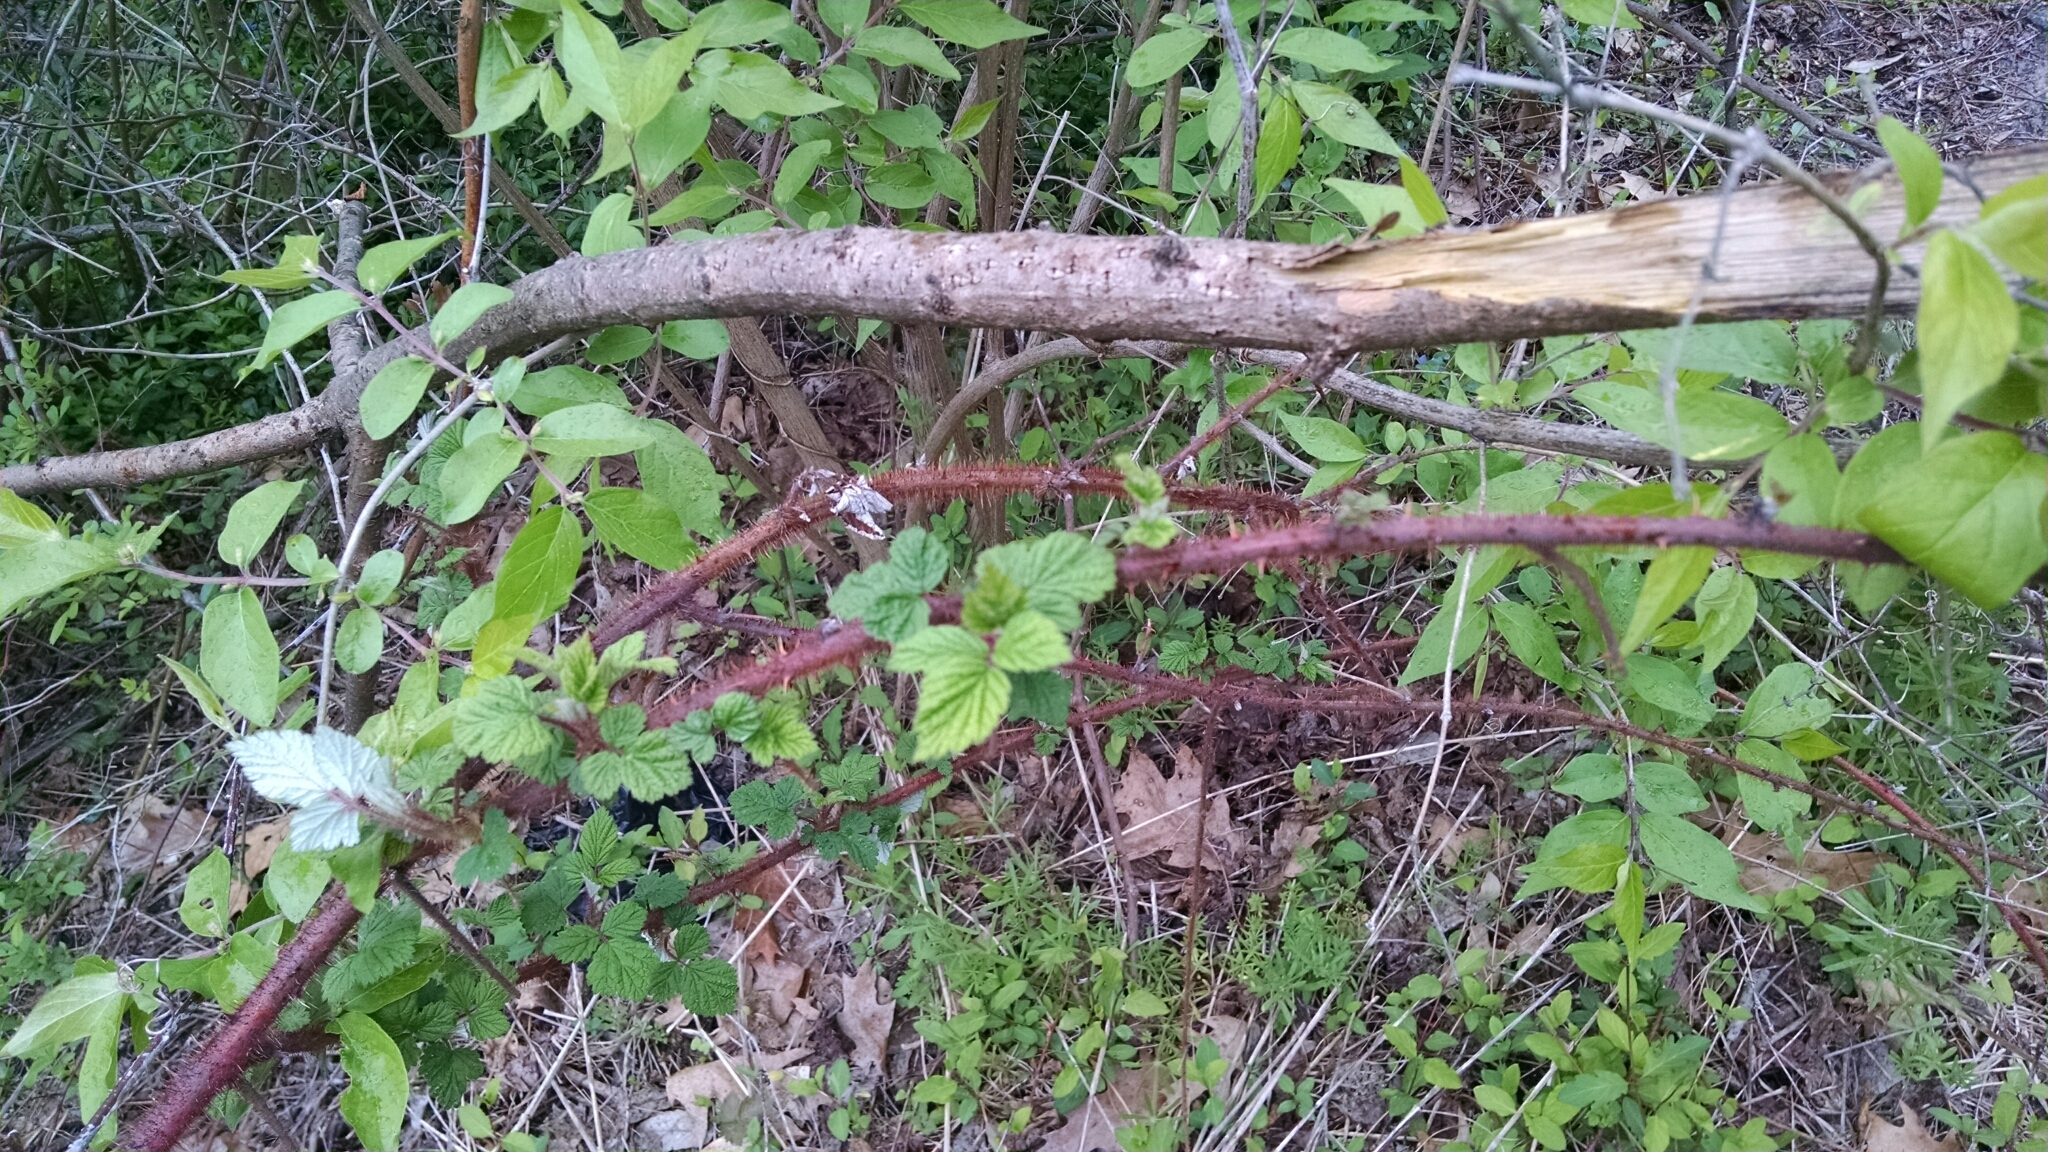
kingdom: Plantae
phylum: Tracheophyta
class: Magnoliopsida
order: Rosales
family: Rosaceae
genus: Rubus
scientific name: Rubus phoenicolasius
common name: Japanese wineberry
